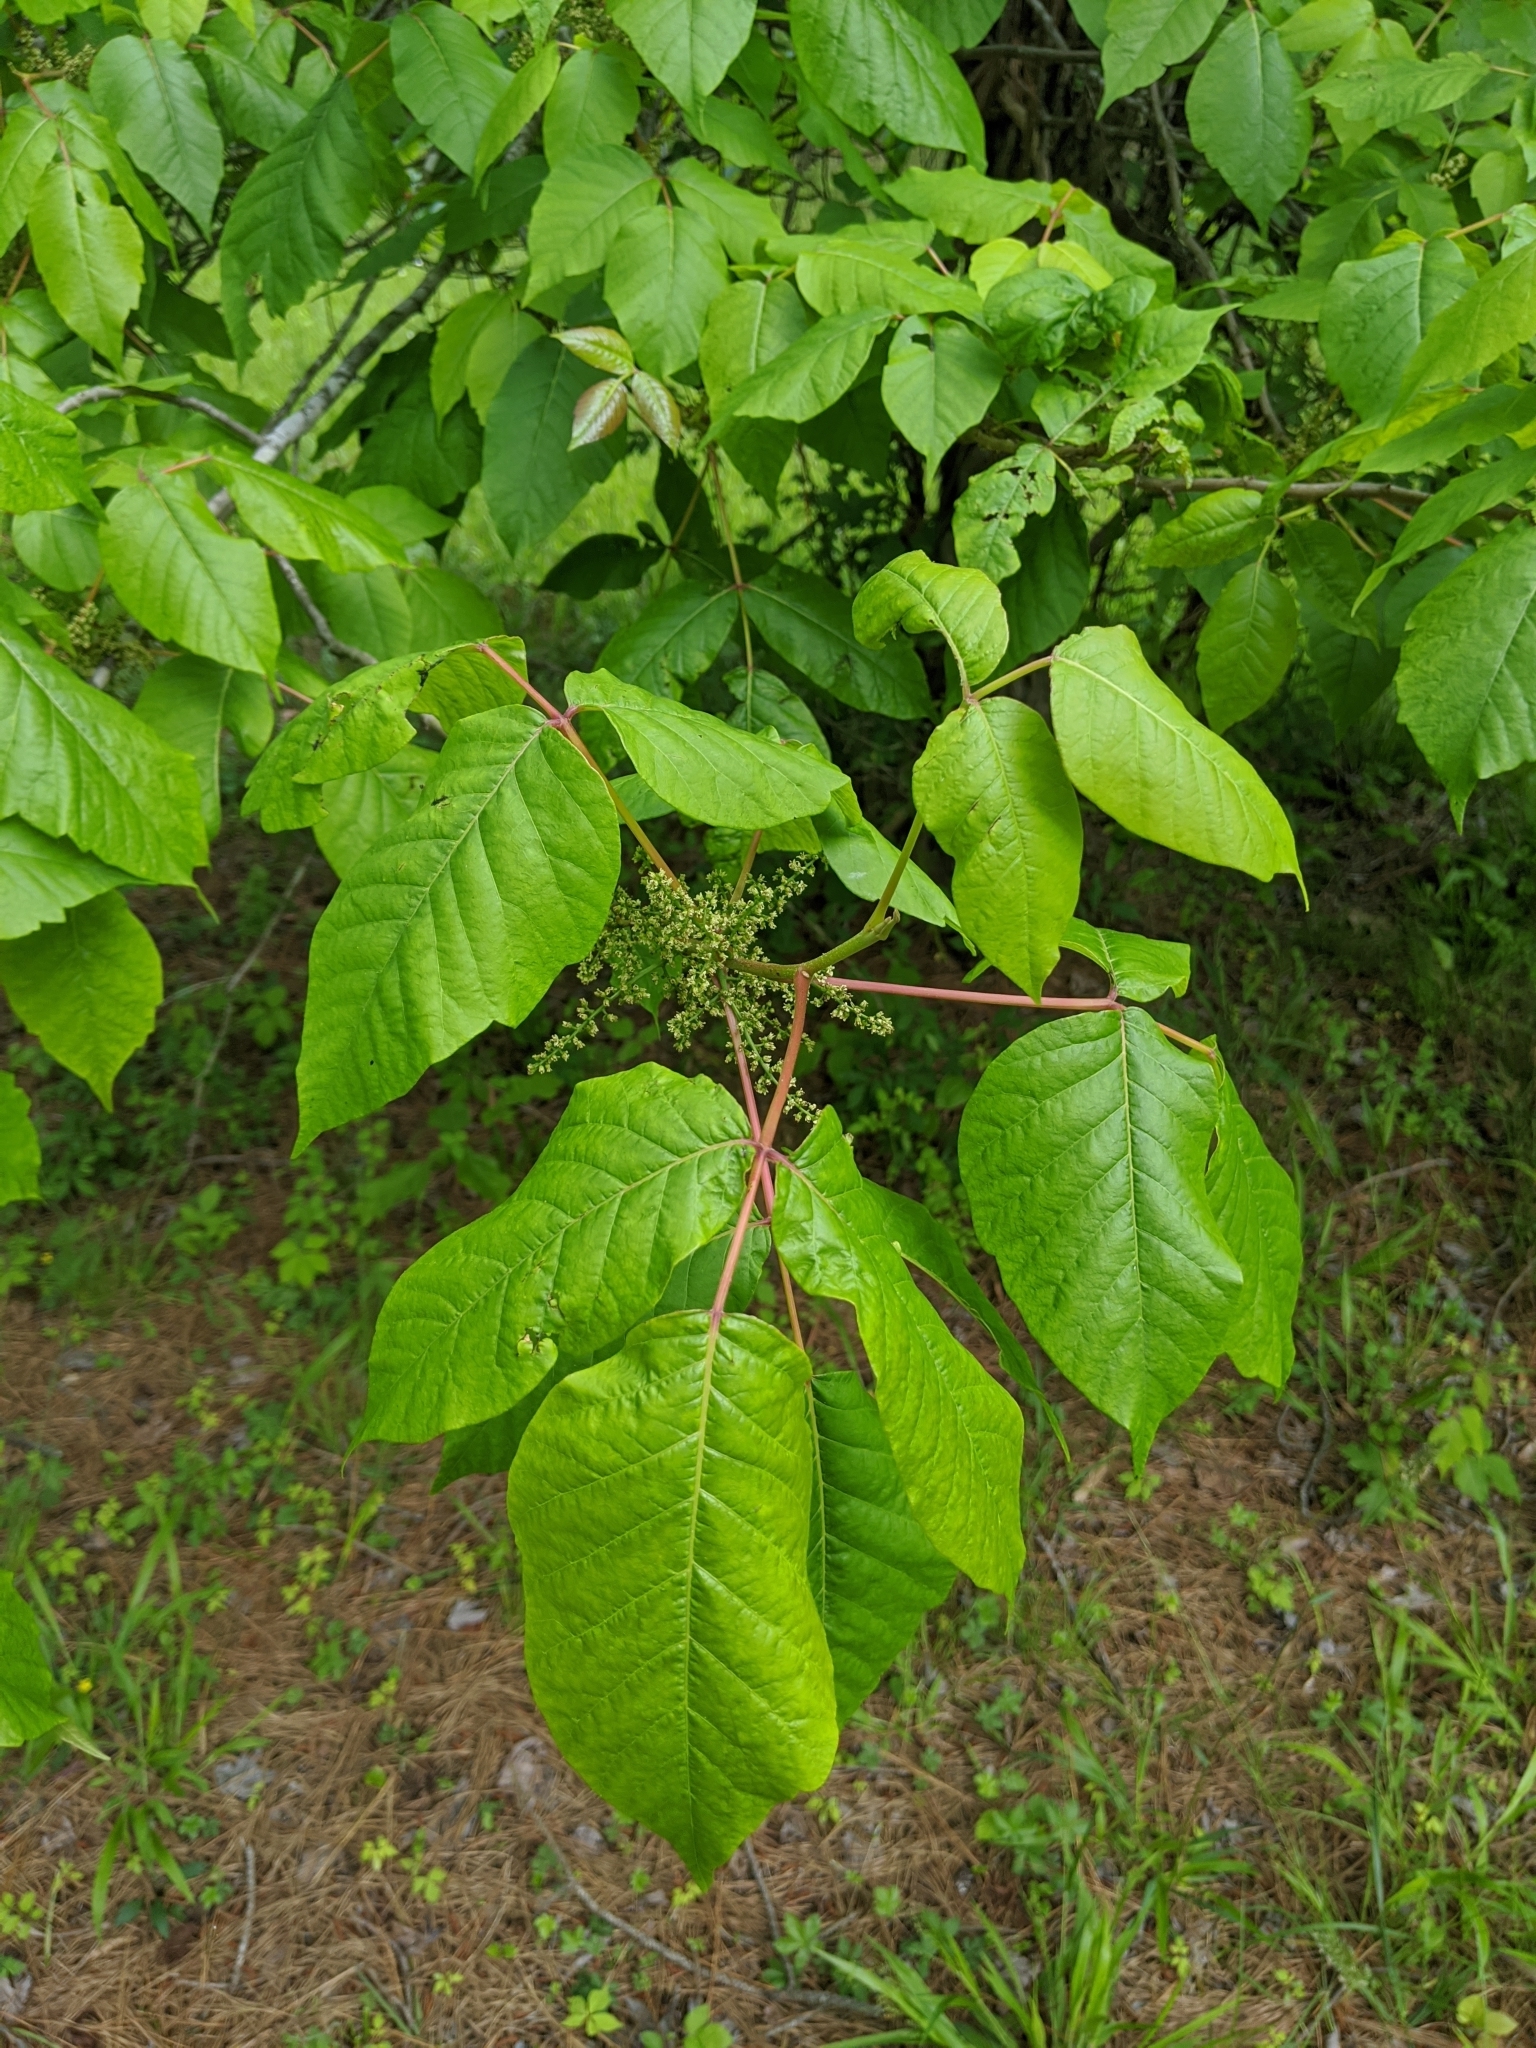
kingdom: Plantae
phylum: Tracheophyta
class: Magnoliopsida
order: Sapindales
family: Anacardiaceae
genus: Toxicodendron
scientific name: Toxicodendron radicans
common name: Poison ivy
